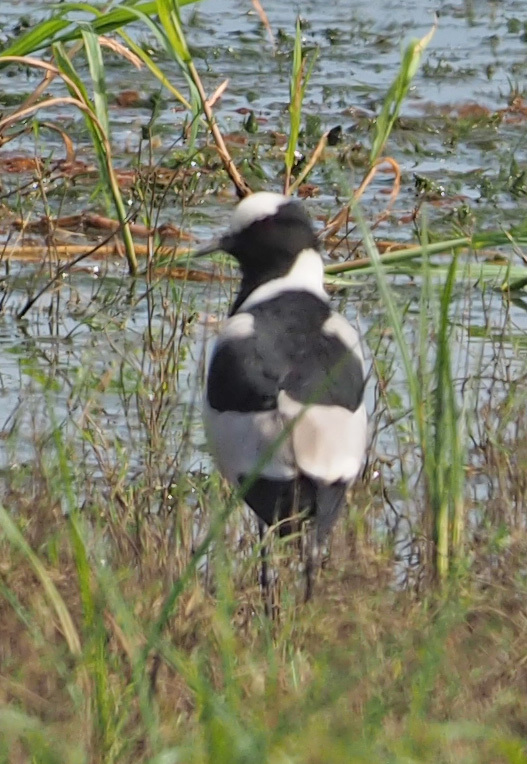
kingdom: Animalia
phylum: Chordata
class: Aves
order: Charadriiformes
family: Charadriidae
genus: Vanellus
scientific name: Vanellus armatus
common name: Blacksmith lapwing
